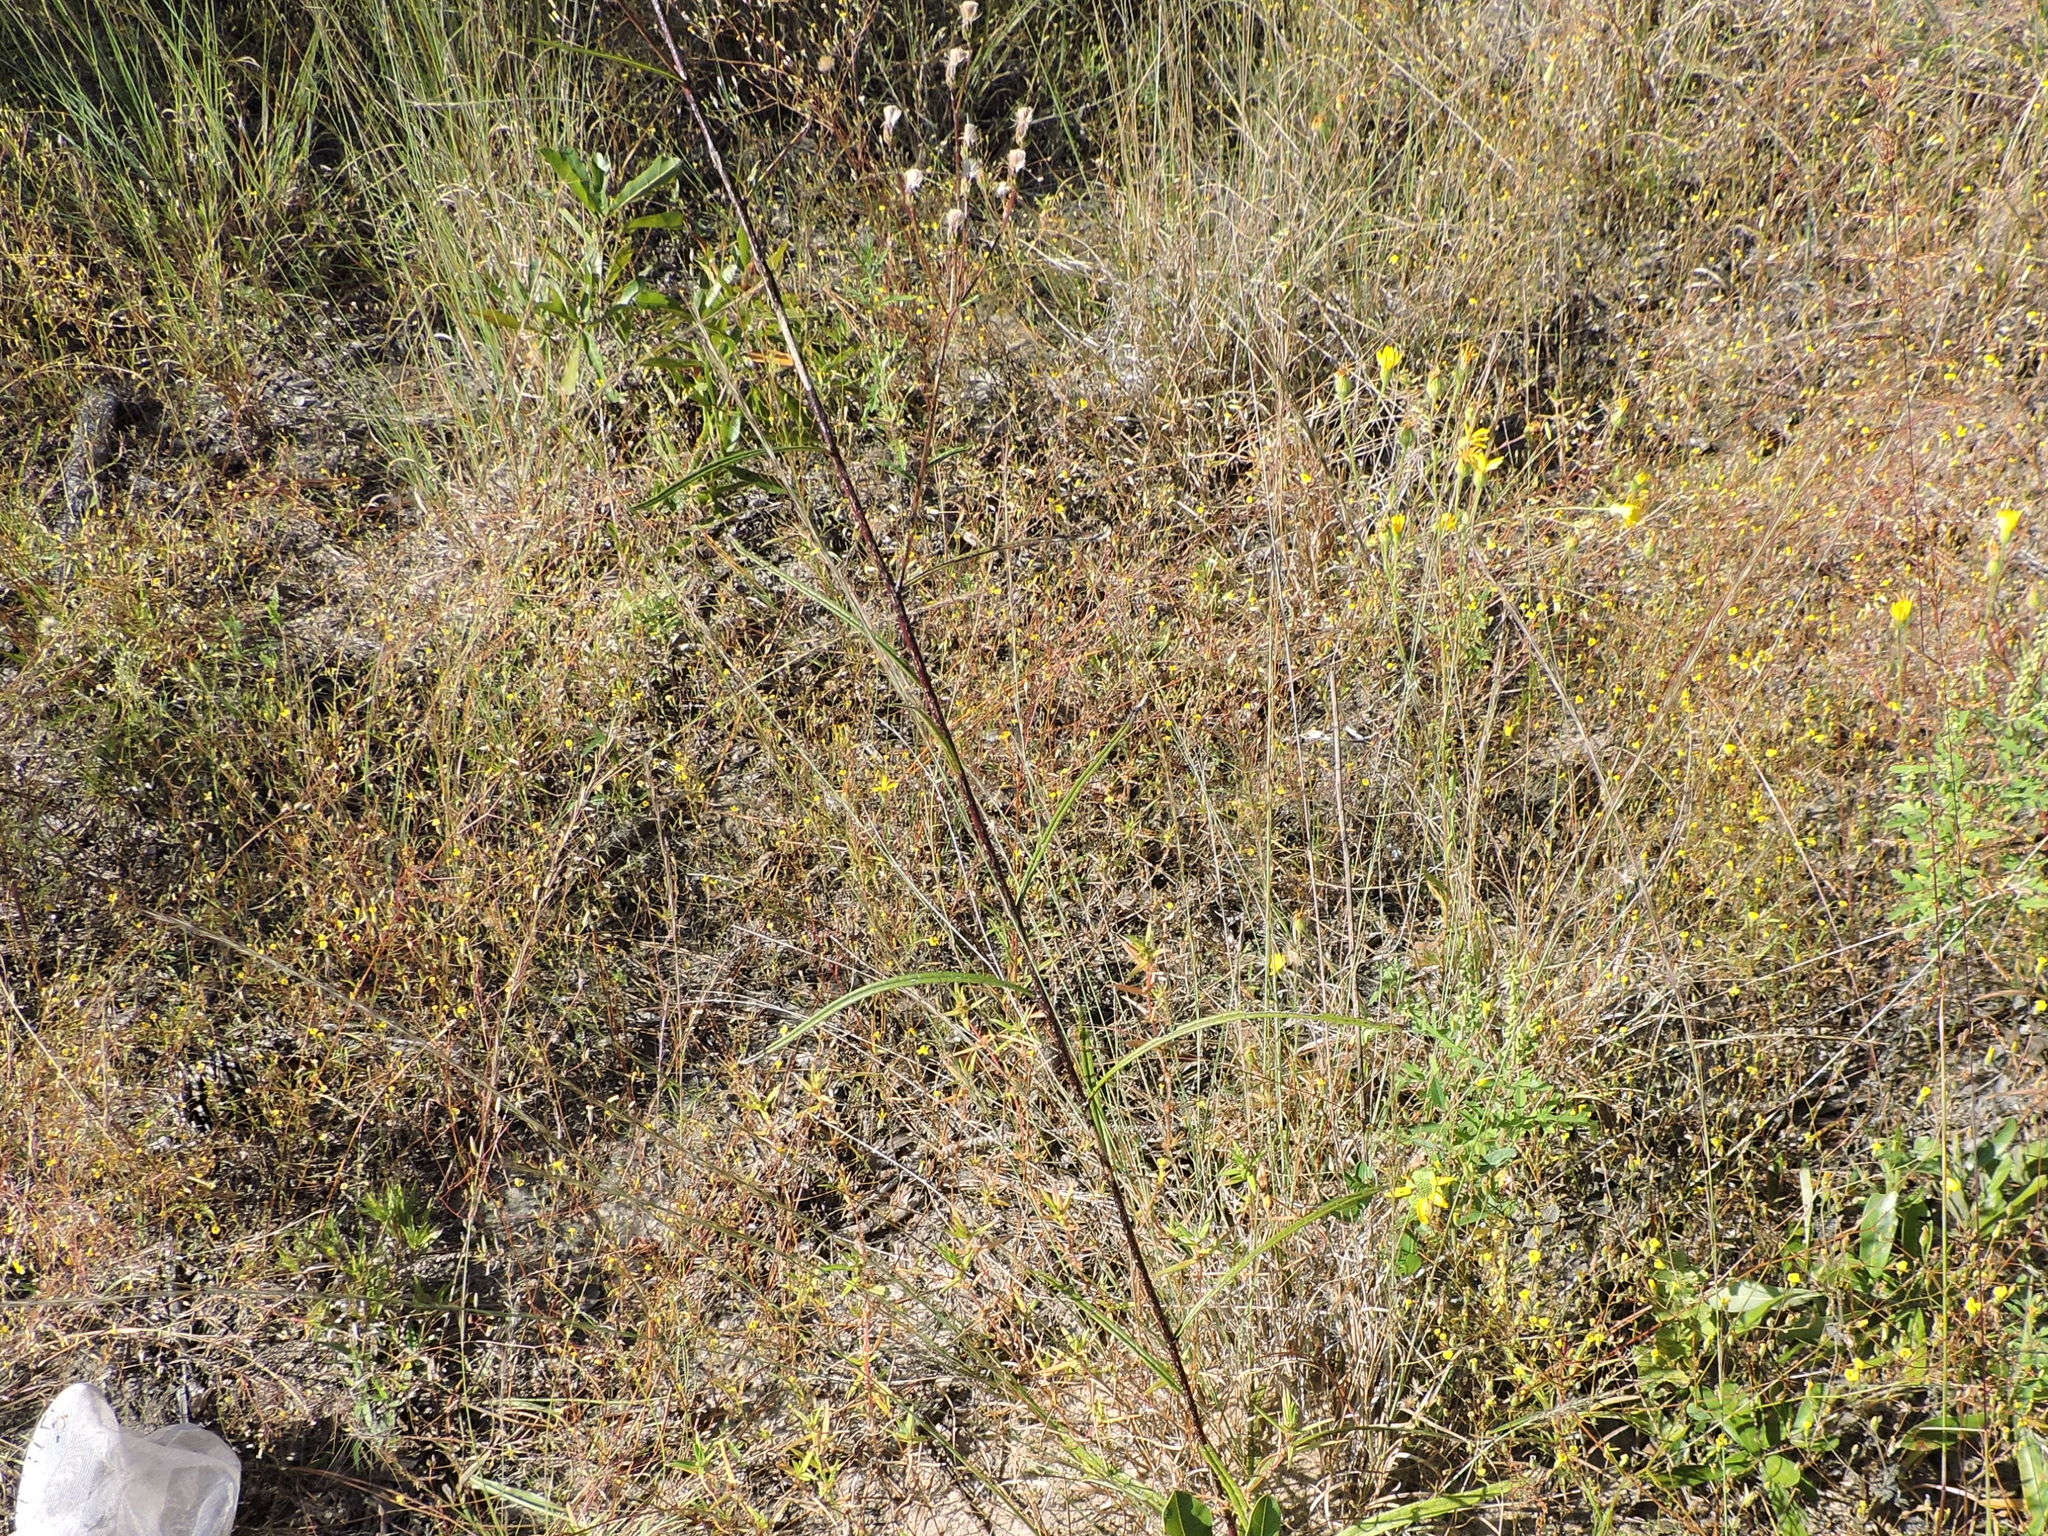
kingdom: Plantae
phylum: Tracheophyta
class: Magnoliopsida
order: Asterales
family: Asteraceae
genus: Vernonia
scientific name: Vernonia texana
